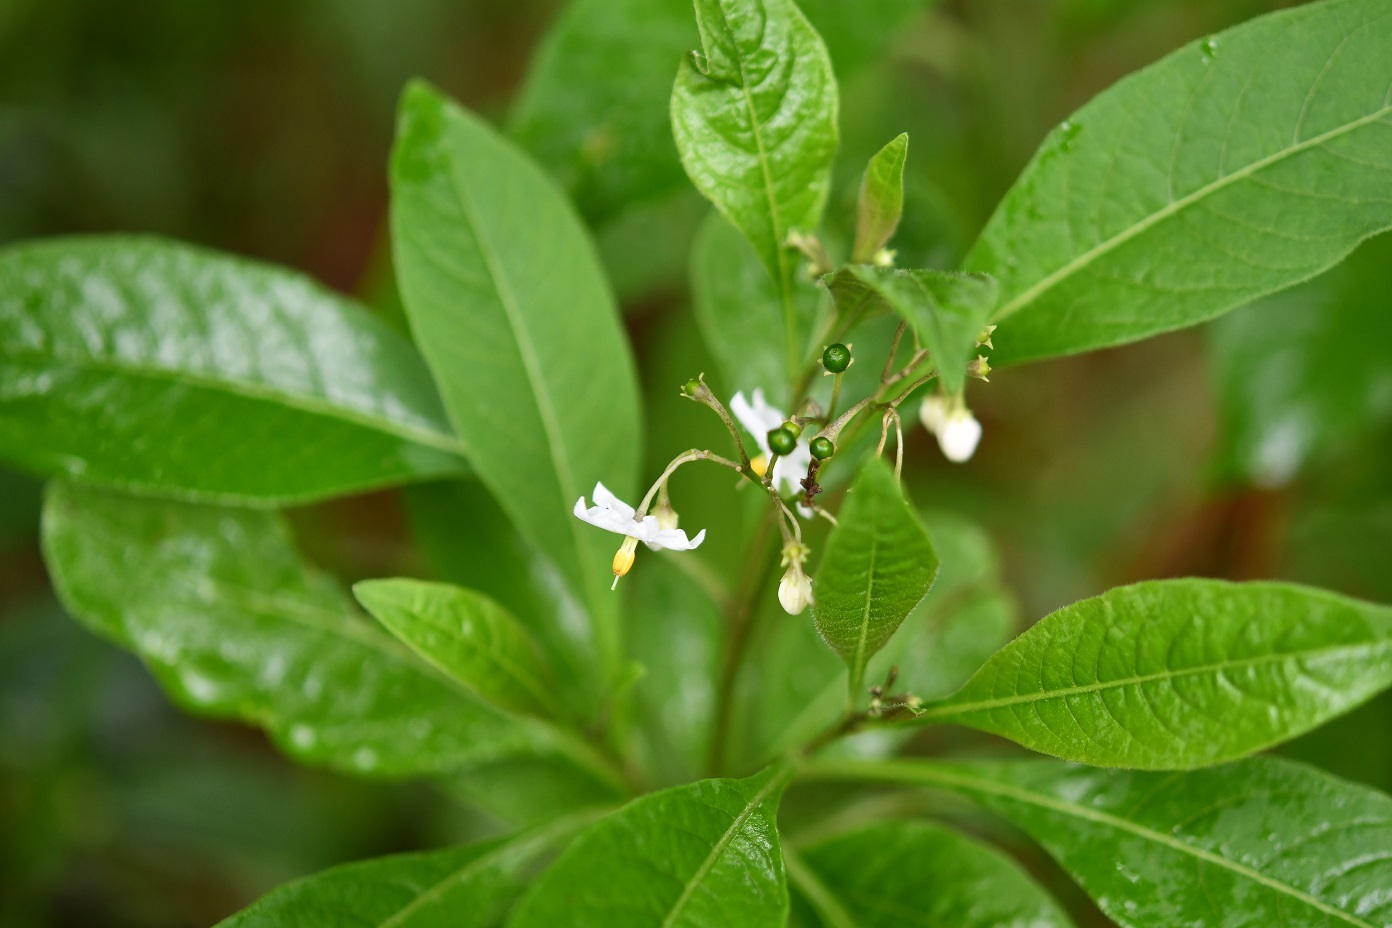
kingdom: Plantae
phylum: Tracheophyta
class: Magnoliopsida
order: Solanales
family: Solanaceae
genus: Solanum
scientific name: Solanum pubigerum
